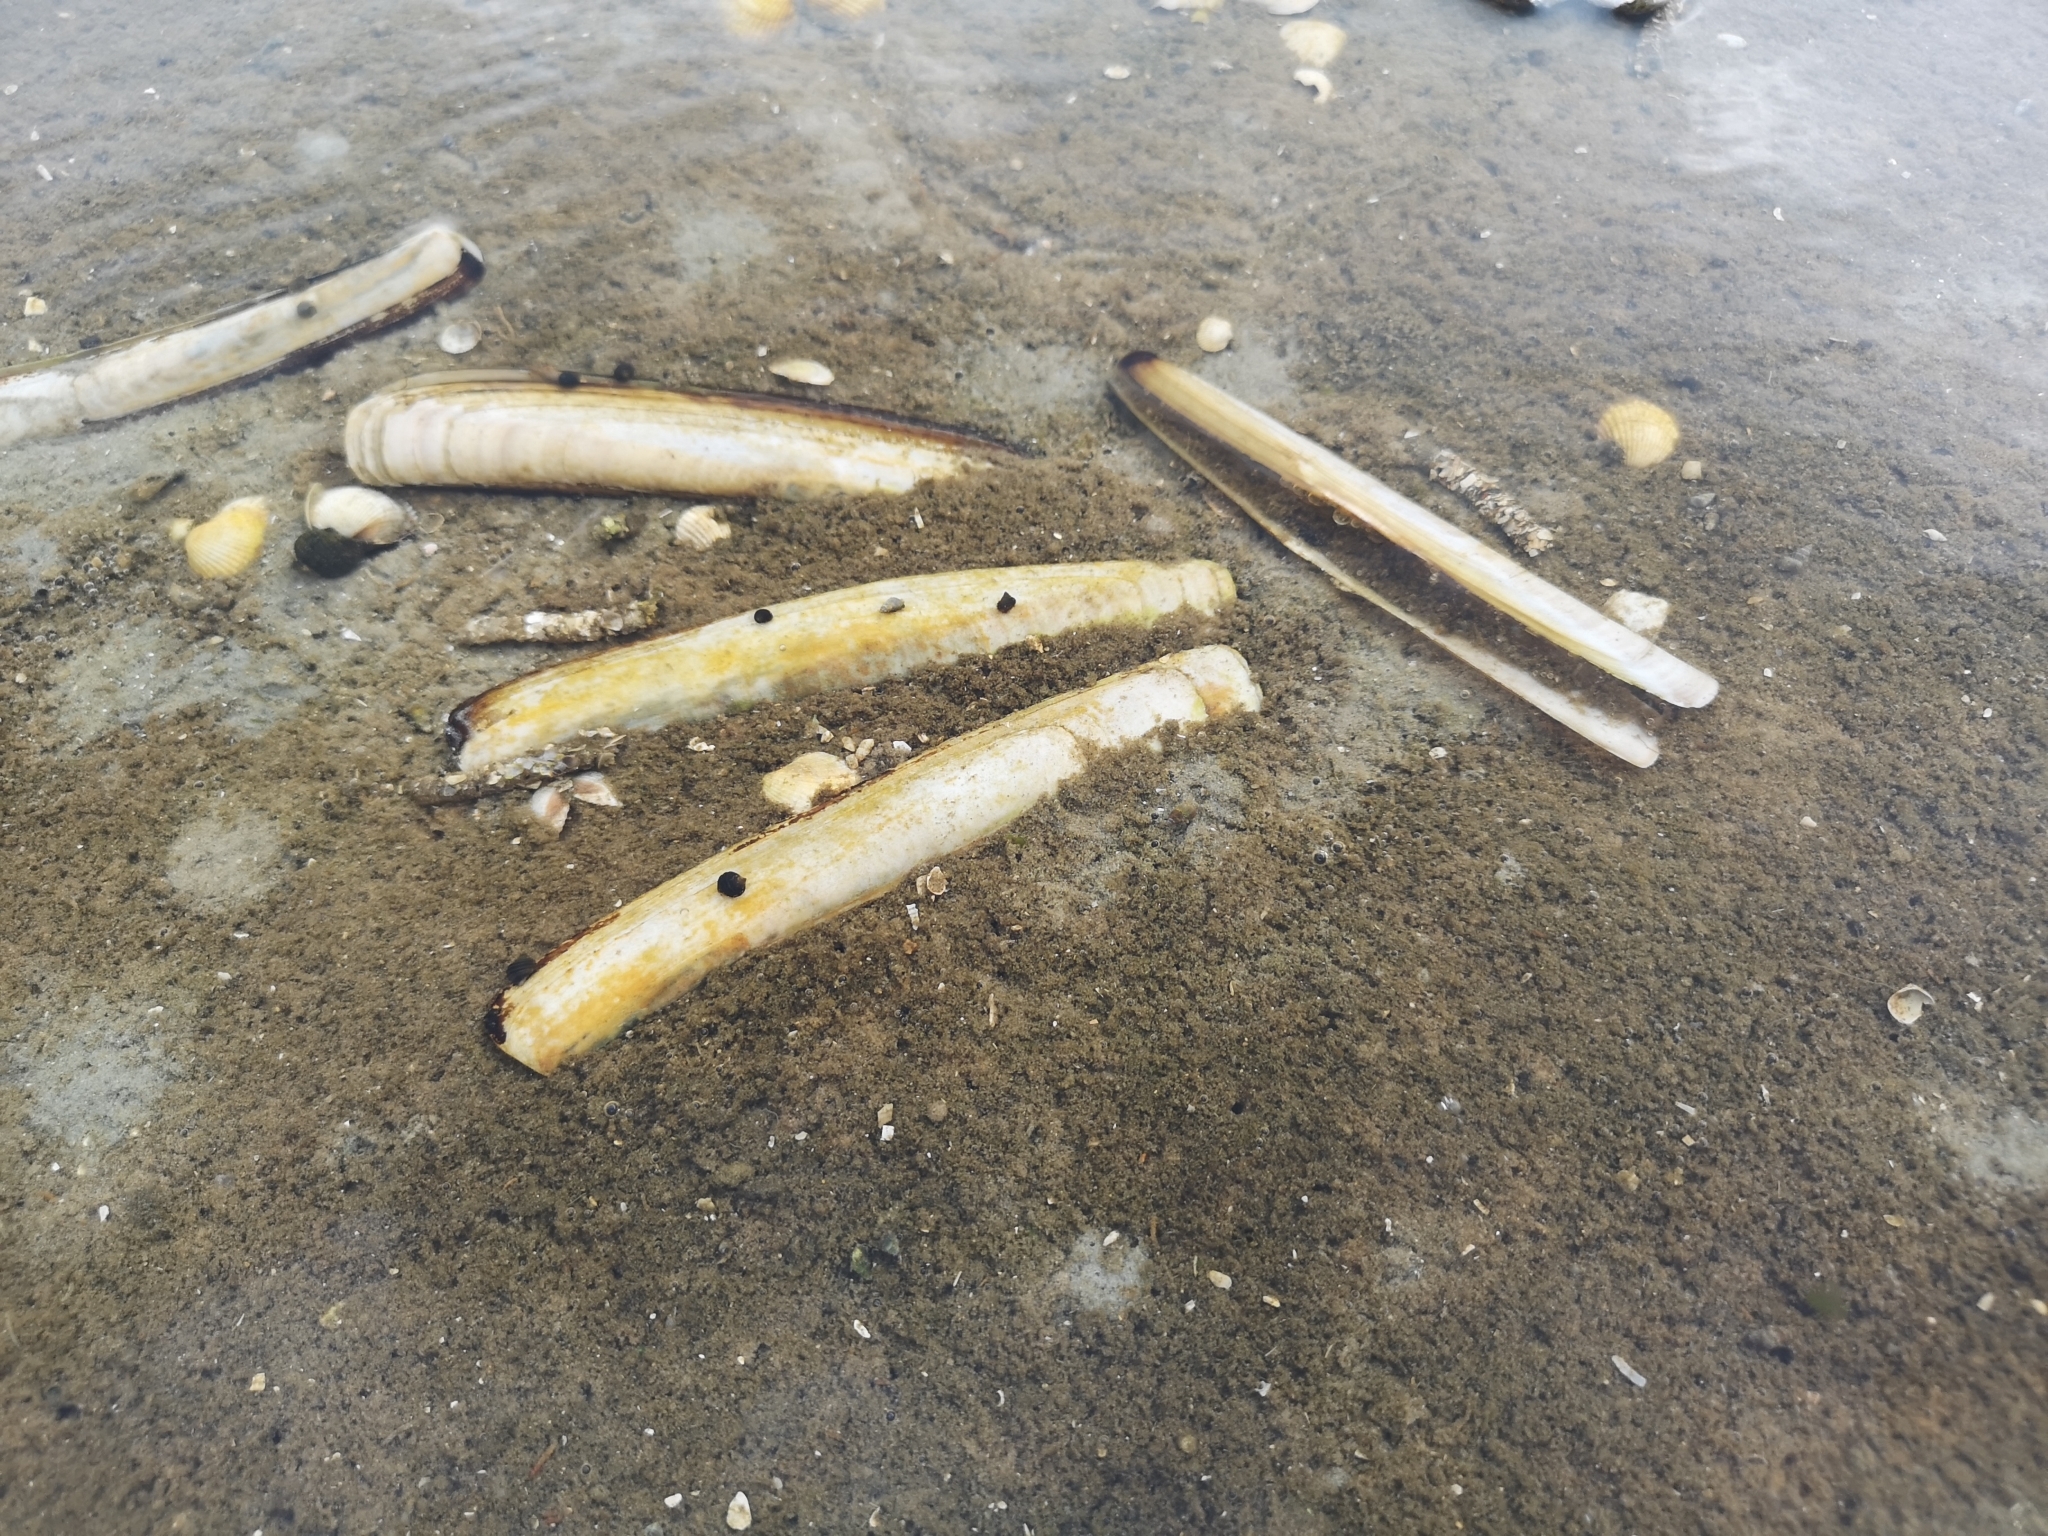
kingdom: Animalia
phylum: Mollusca
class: Bivalvia
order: Adapedonta
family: Pharidae
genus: Ensis
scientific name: Ensis leei
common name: American jack knife clam
